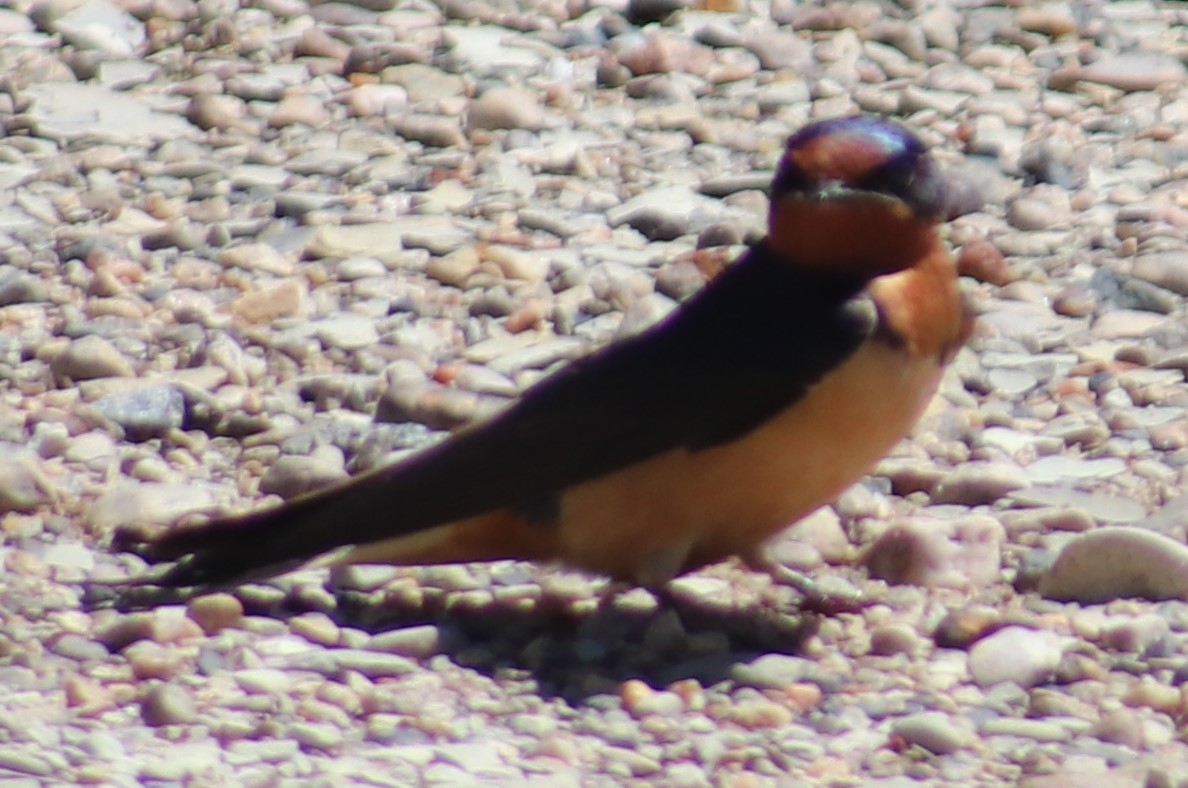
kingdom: Animalia
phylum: Chordata
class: Aves
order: Passeriformes
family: Hirundinidae
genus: Hirundo
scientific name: Hirundo rustica
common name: Barn swallow
